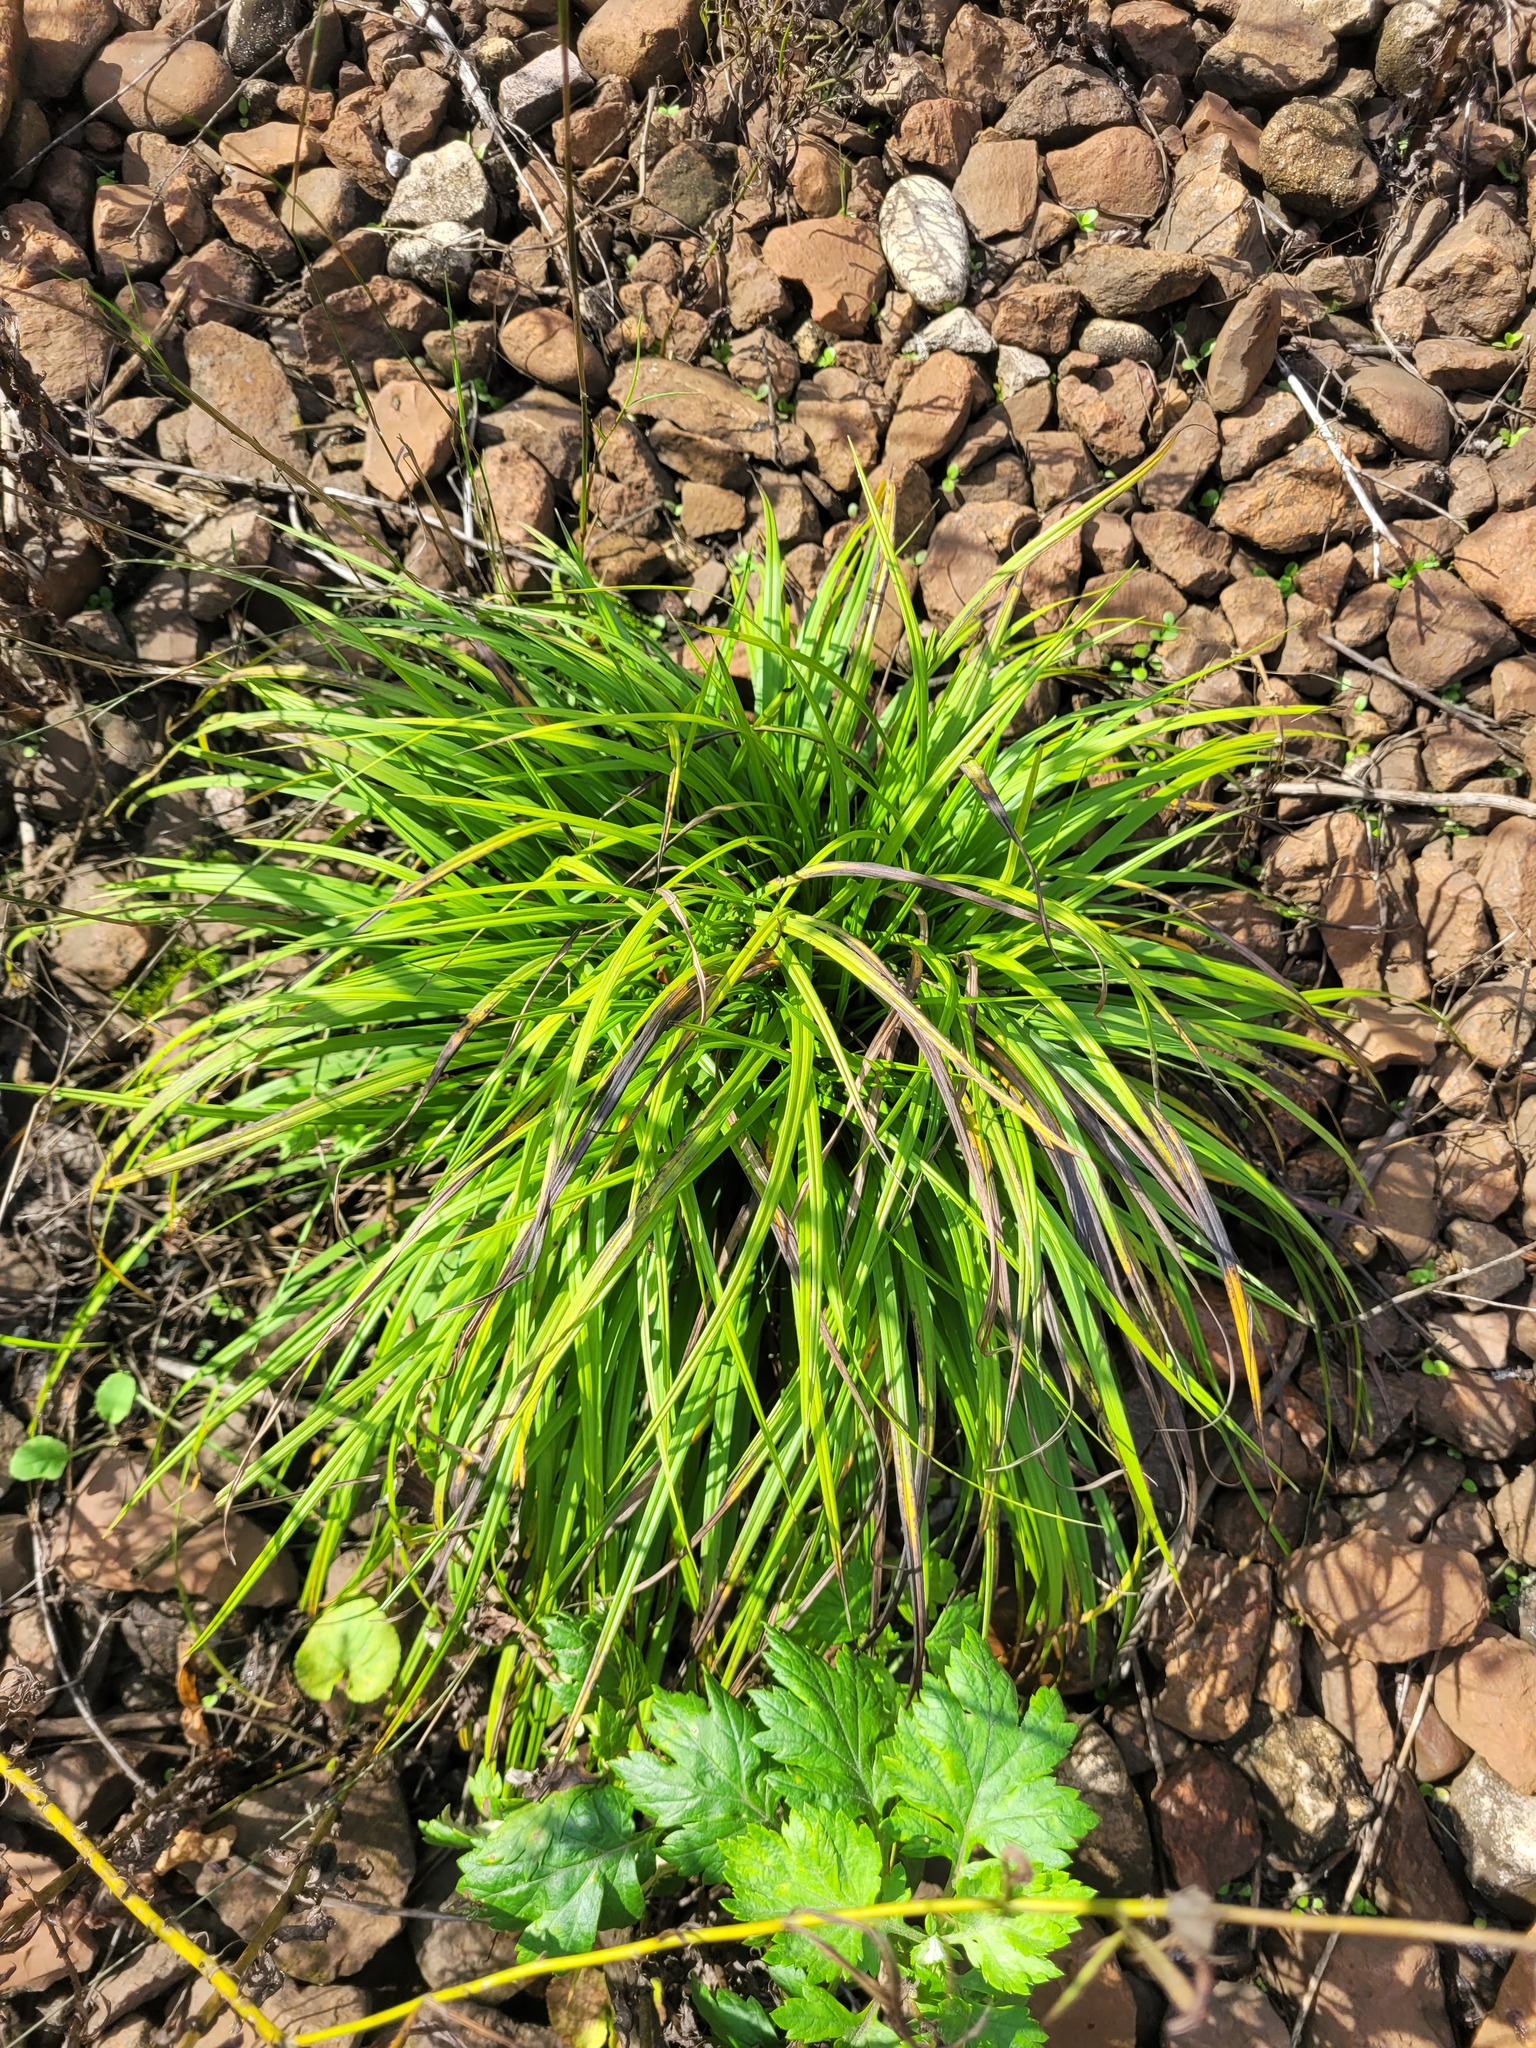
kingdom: Plantae
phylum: Tracheophyta
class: Liliopsida
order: Poales
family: Cyperaceae
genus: Carex
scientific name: Carex digitata
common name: Fingered sedge
